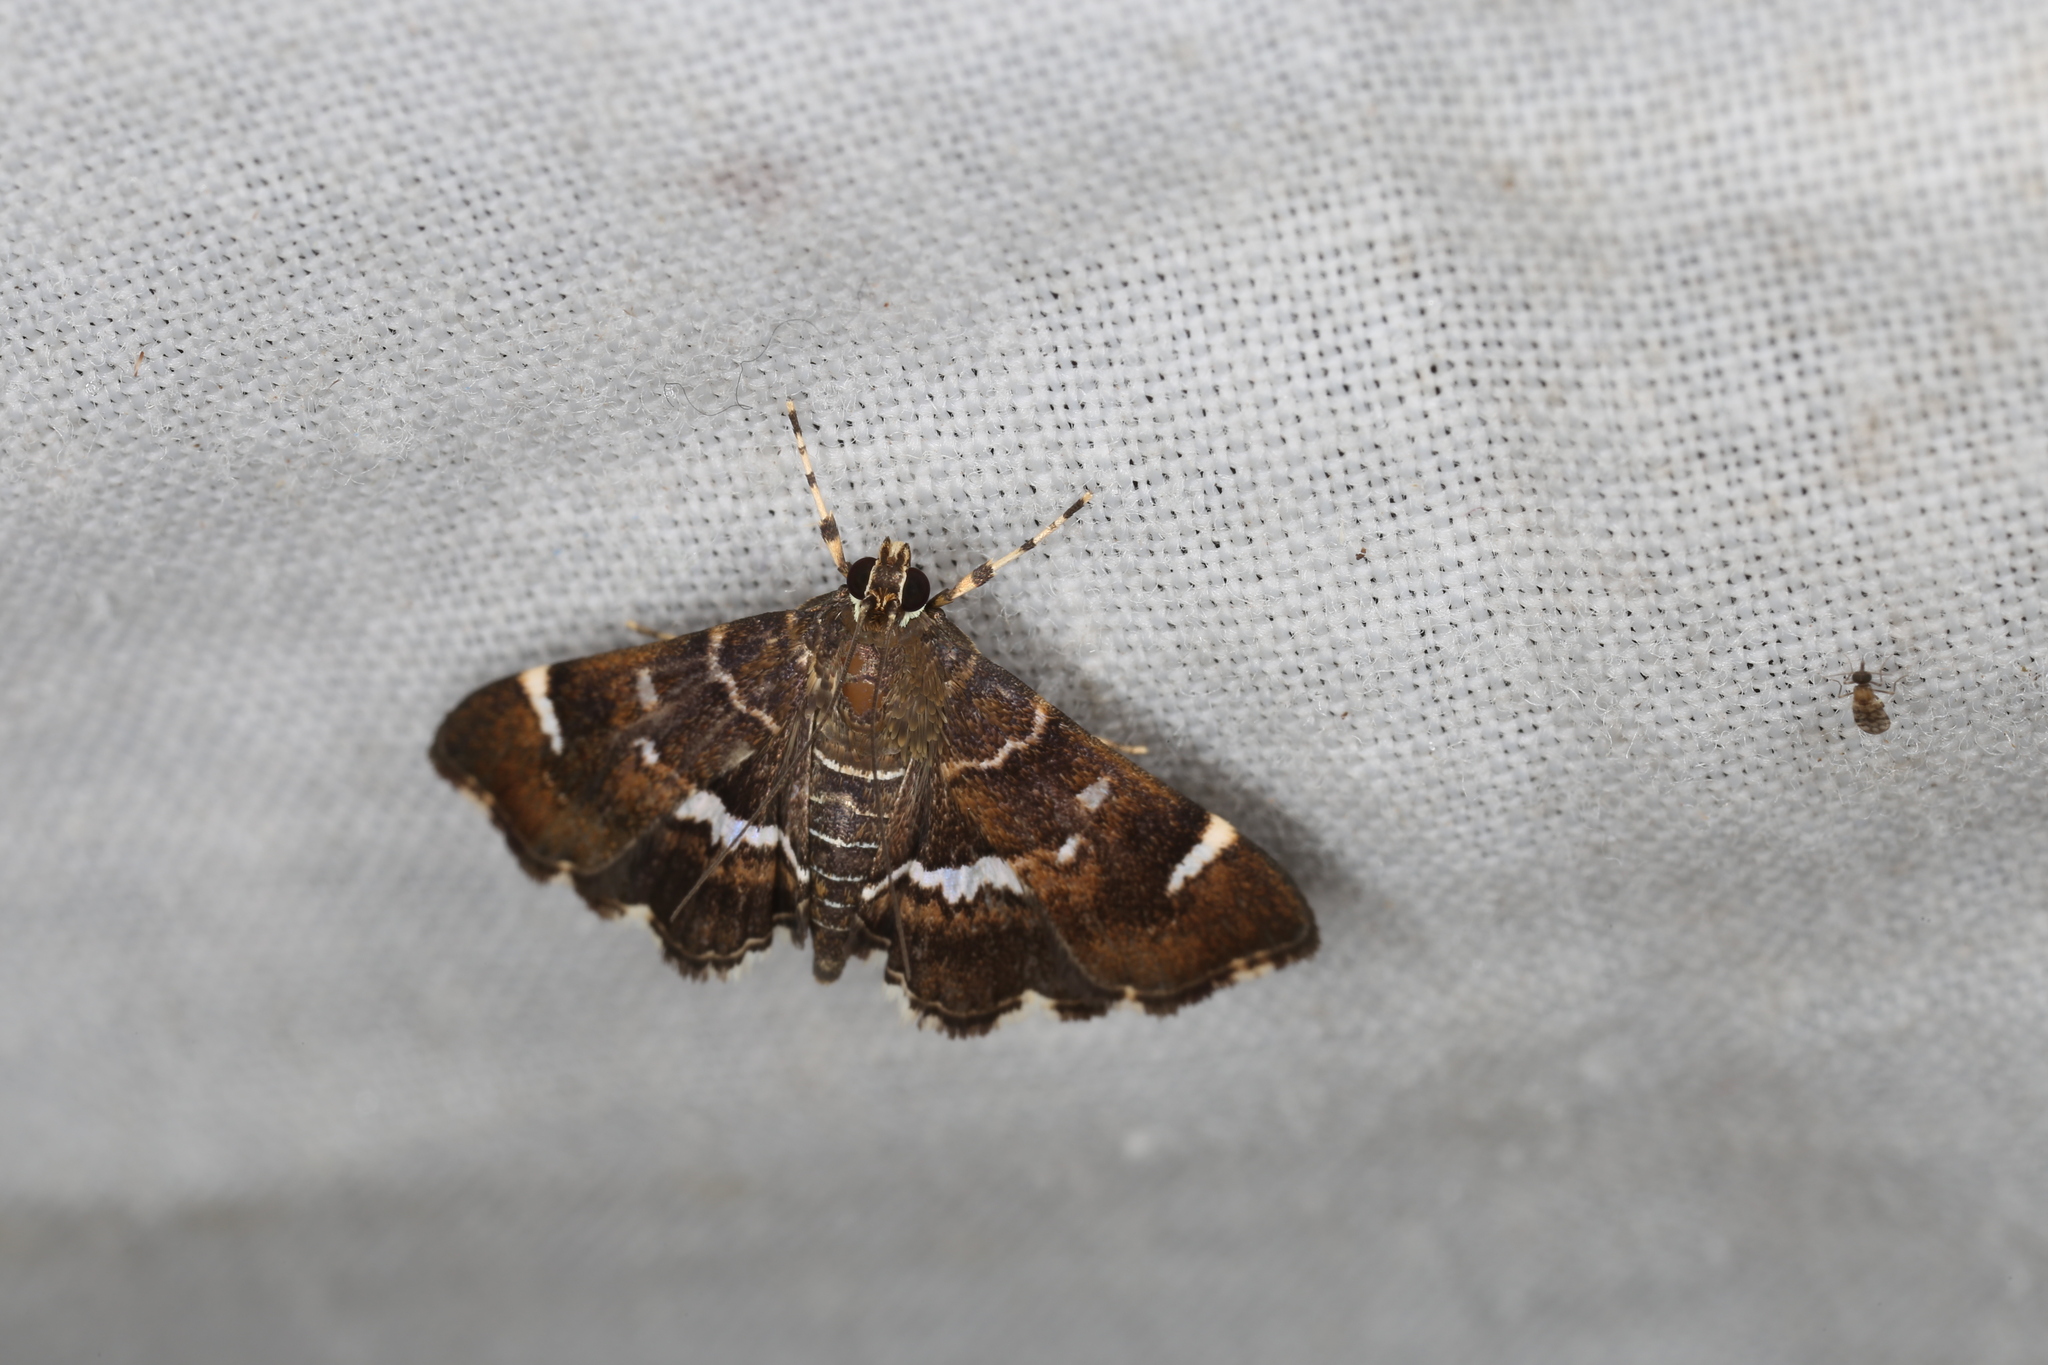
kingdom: Animalia
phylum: Arthropoda
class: Insecta
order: Lepidoptera
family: Crambidae
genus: Hymenia
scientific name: Hymenia perspectalis
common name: Spotted beet webworm
